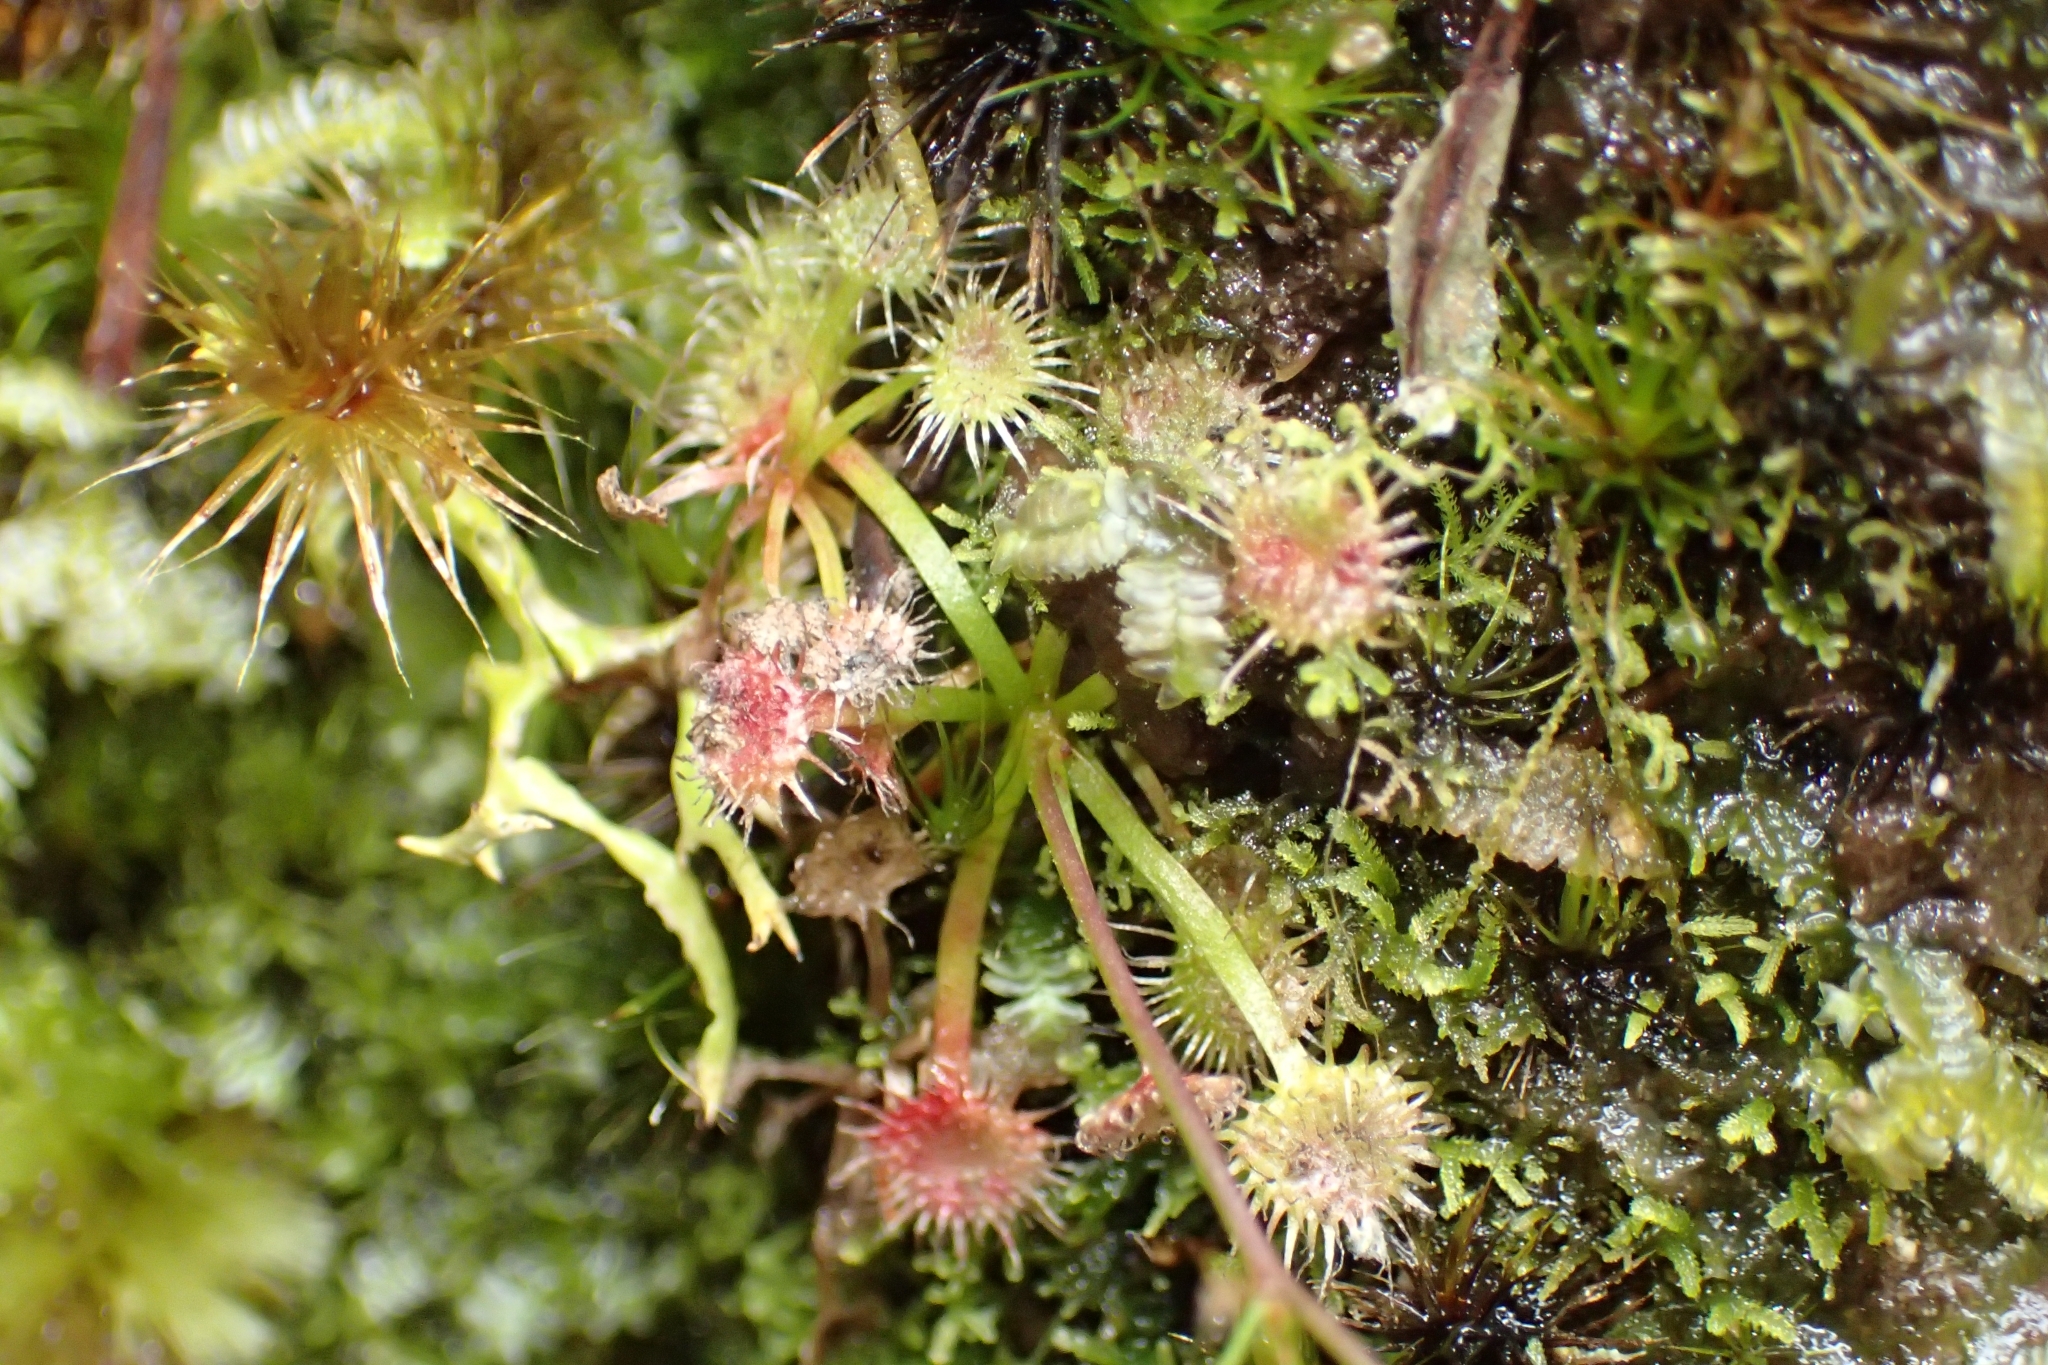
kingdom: Plantae
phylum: Tracheophyta
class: Magnoliopsida
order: Caryophyllales
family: Droseraceae
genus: Drosera
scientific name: Drosera peltata
